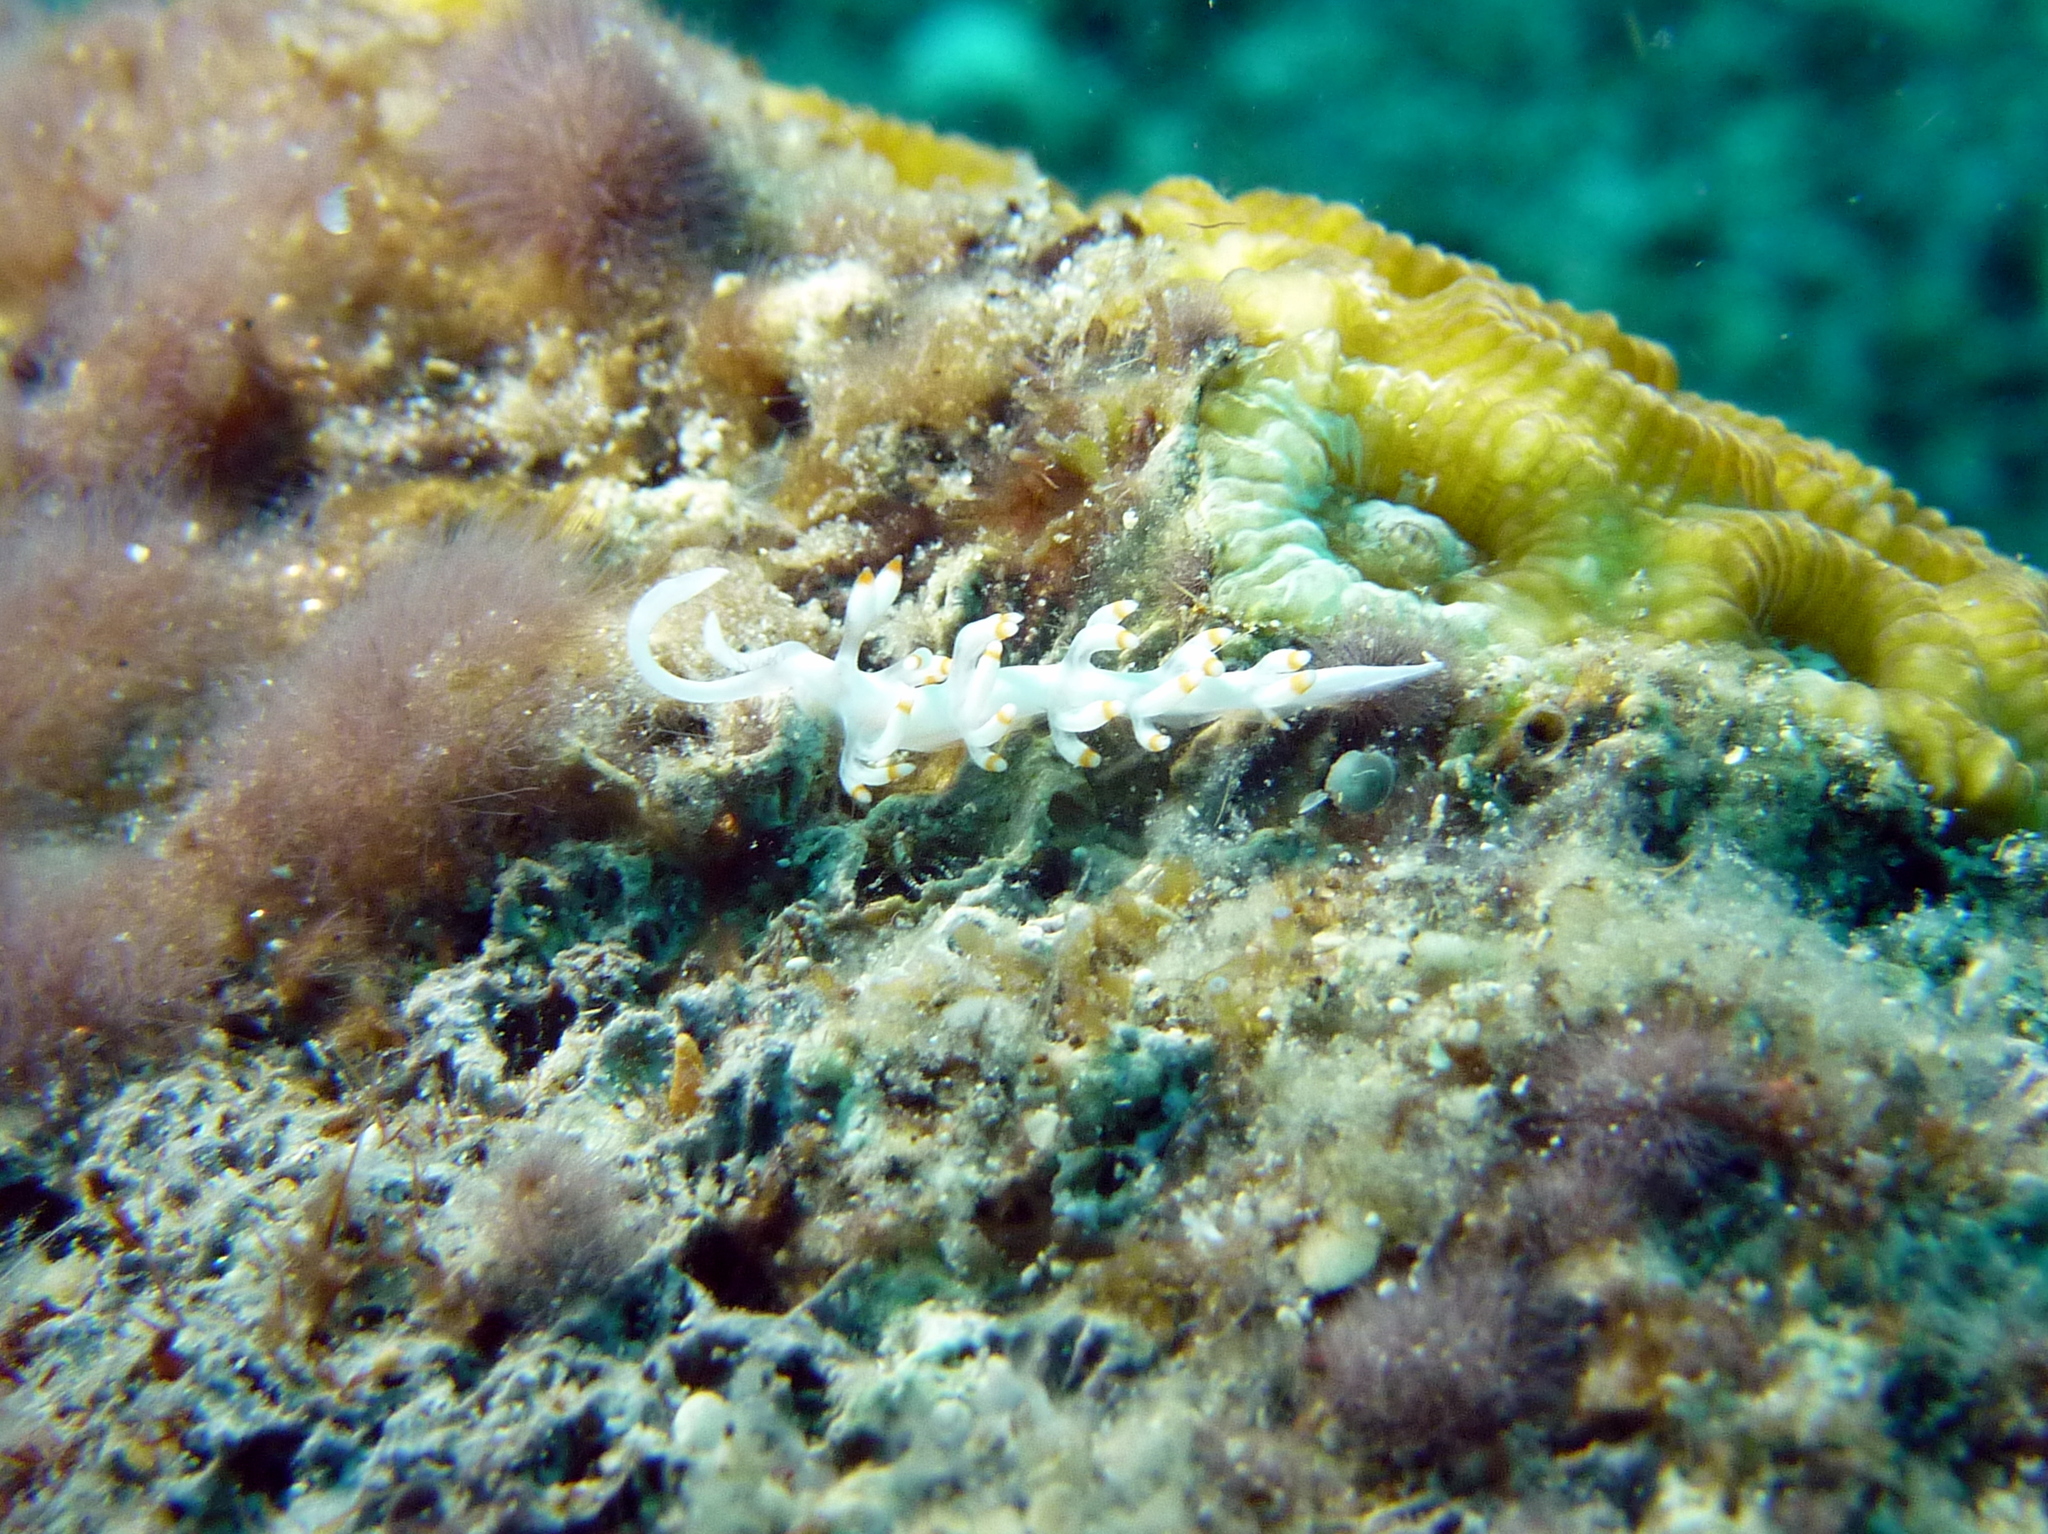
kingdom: Animalia
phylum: Mollusca
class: Gastropoda
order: Nudibranchia
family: Samlidae
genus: Samla
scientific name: Samla bicolor
